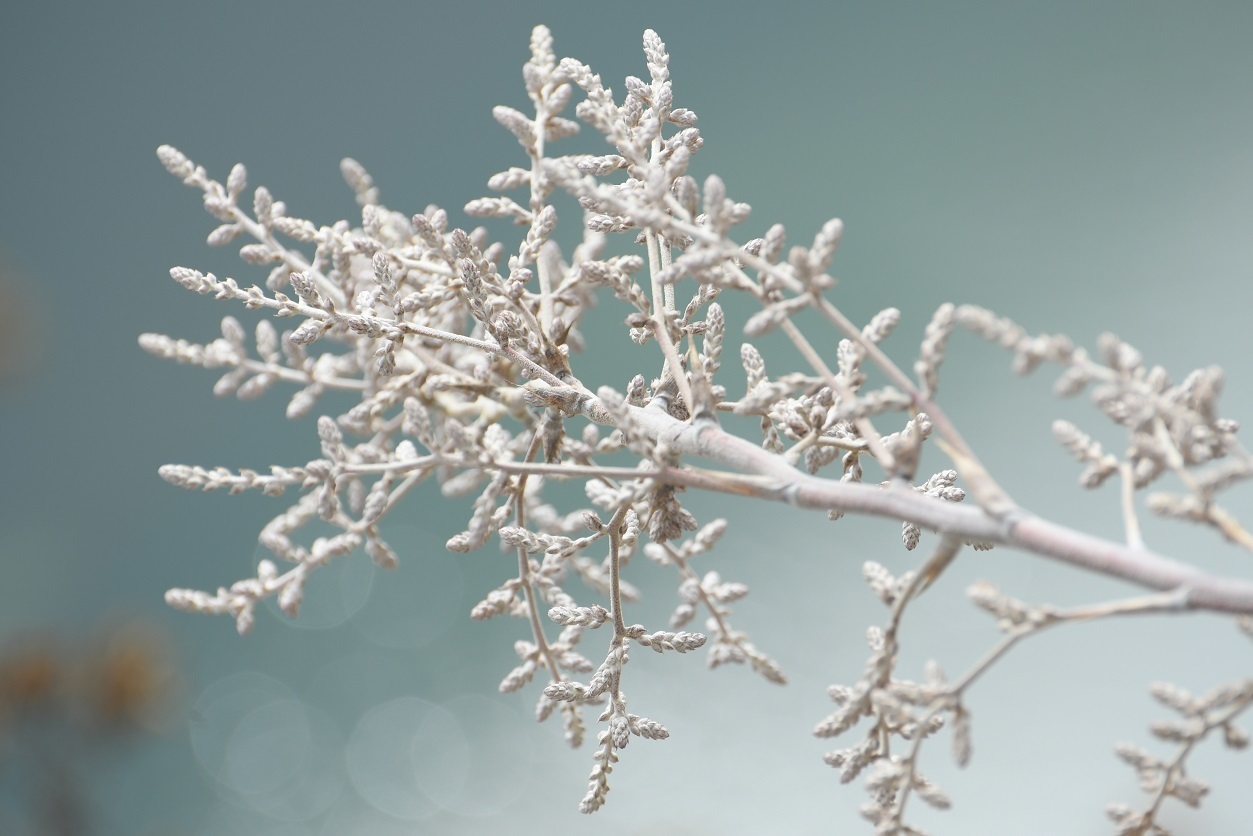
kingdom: Plantae
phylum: Tracheophyta
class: Liliopsida
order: Poales
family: Bromeliaceae
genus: Hechtia
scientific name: Hechtia glomerata
